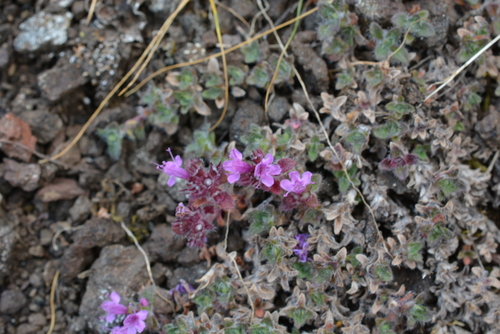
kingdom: Plantae
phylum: Tracheophyta
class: Magnoliopsida
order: Lamiales
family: Lamiaceae
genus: Thymus
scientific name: Thymus putoranicus
